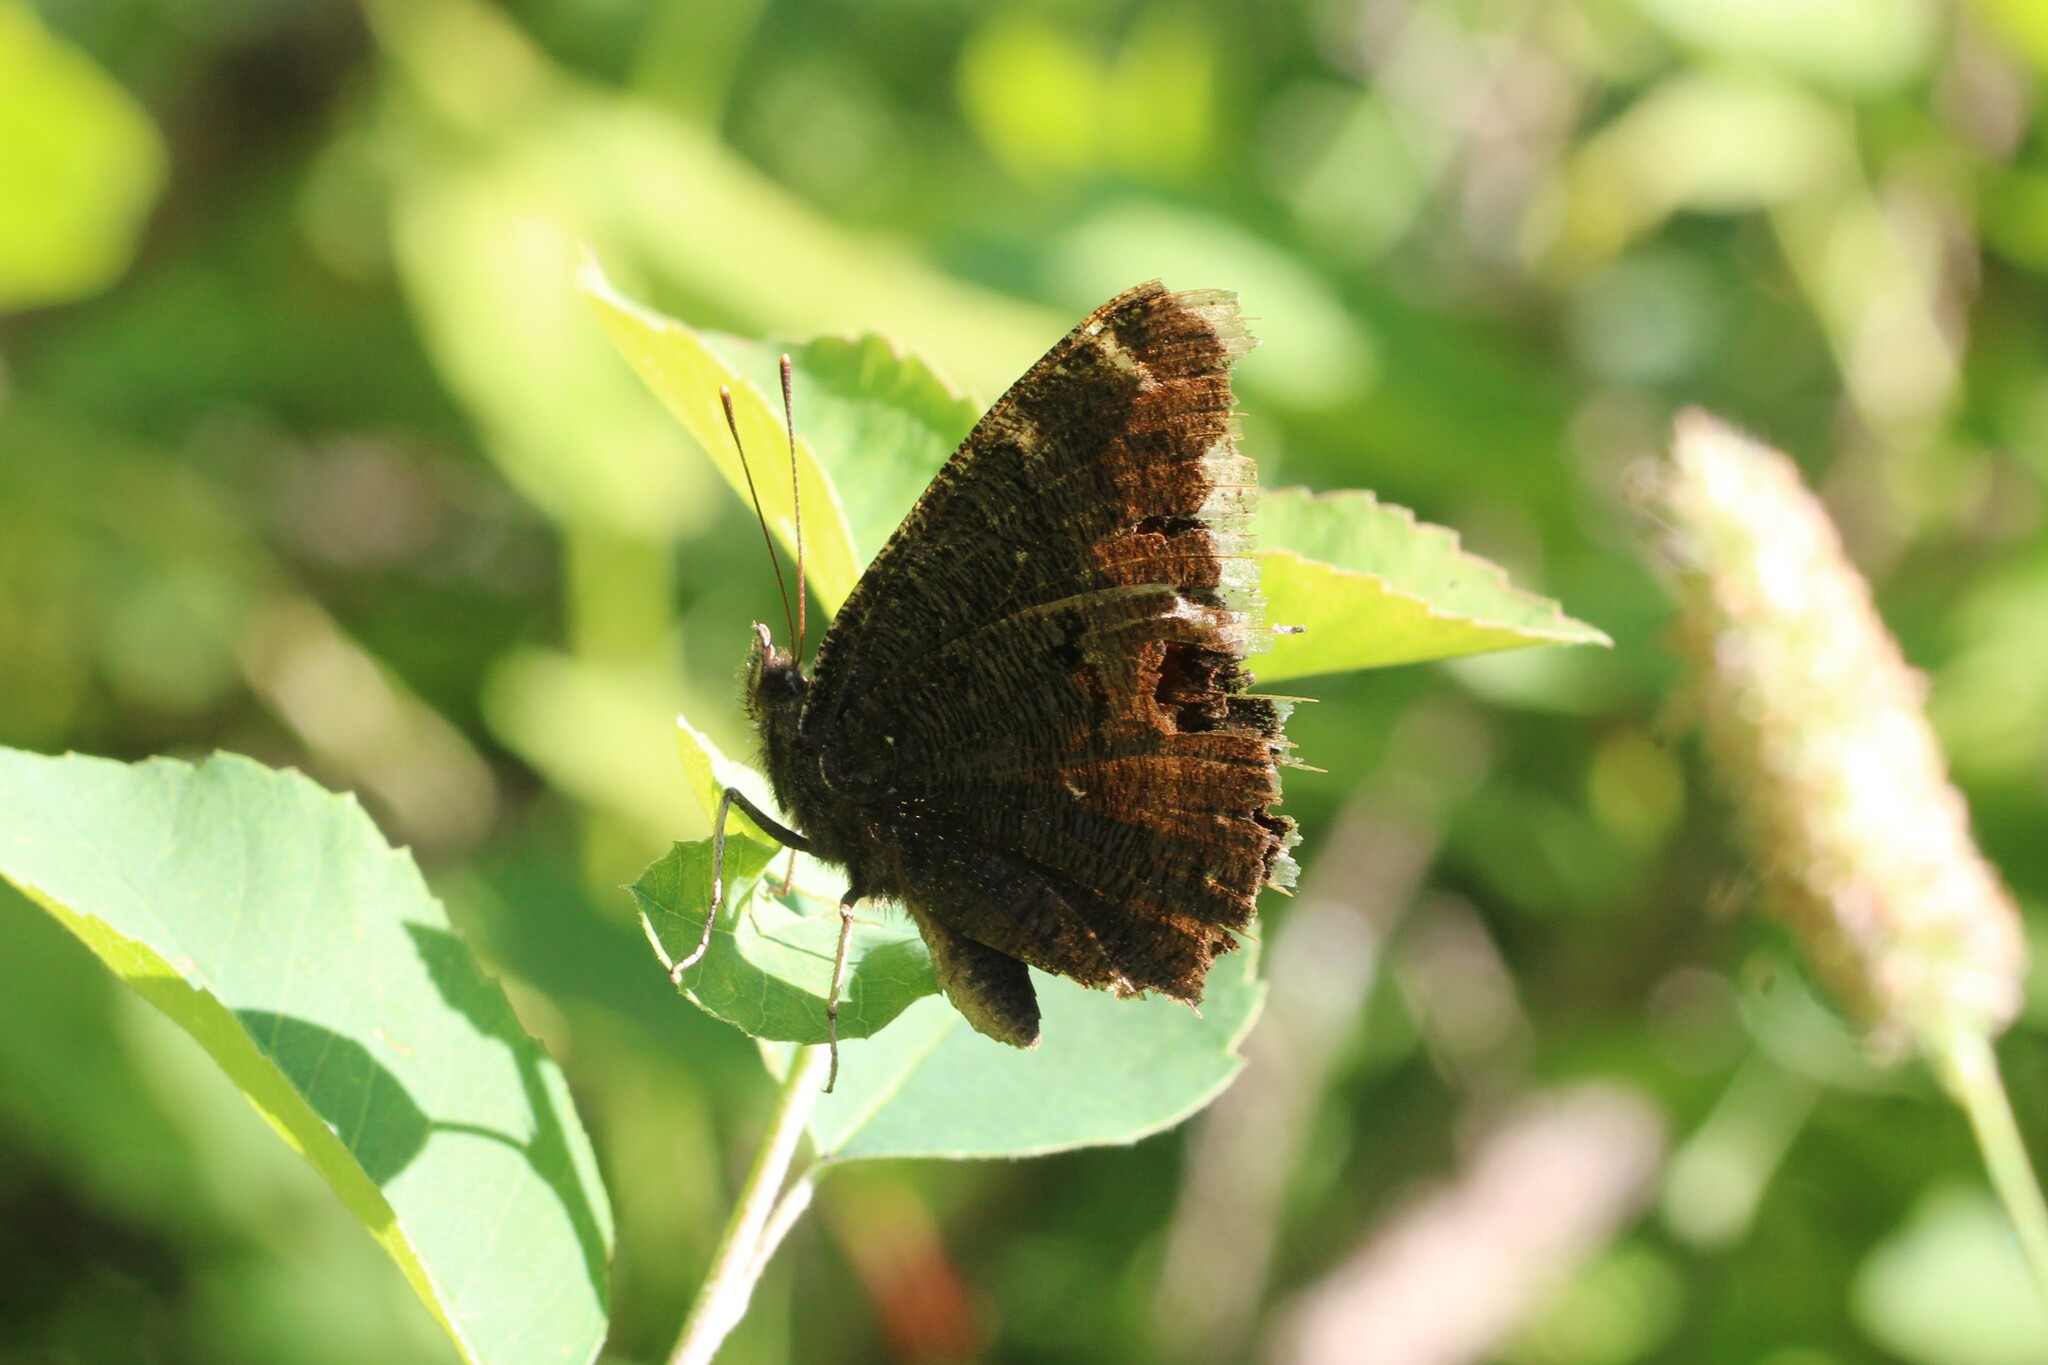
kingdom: Animalia
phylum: Arthropoda
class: Insecta
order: Lepidoptera
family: Nymphalidae
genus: Nymphalis
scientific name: Nymphalis antiopa
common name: Camberwell beauty
